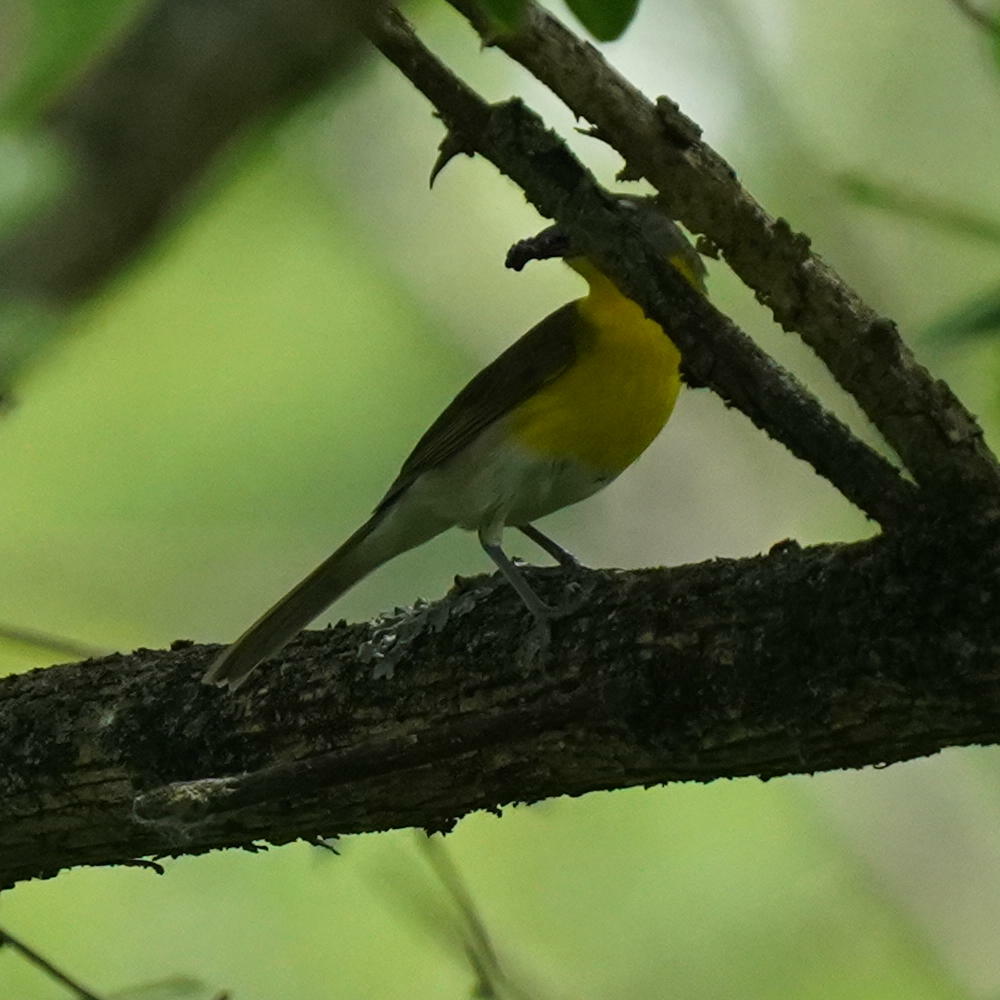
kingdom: Animalia
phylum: Chordata
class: Aves
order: Passeriformes
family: Parulidae
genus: Icteria
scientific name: Icteria virens
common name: Yellow-breasted chat
